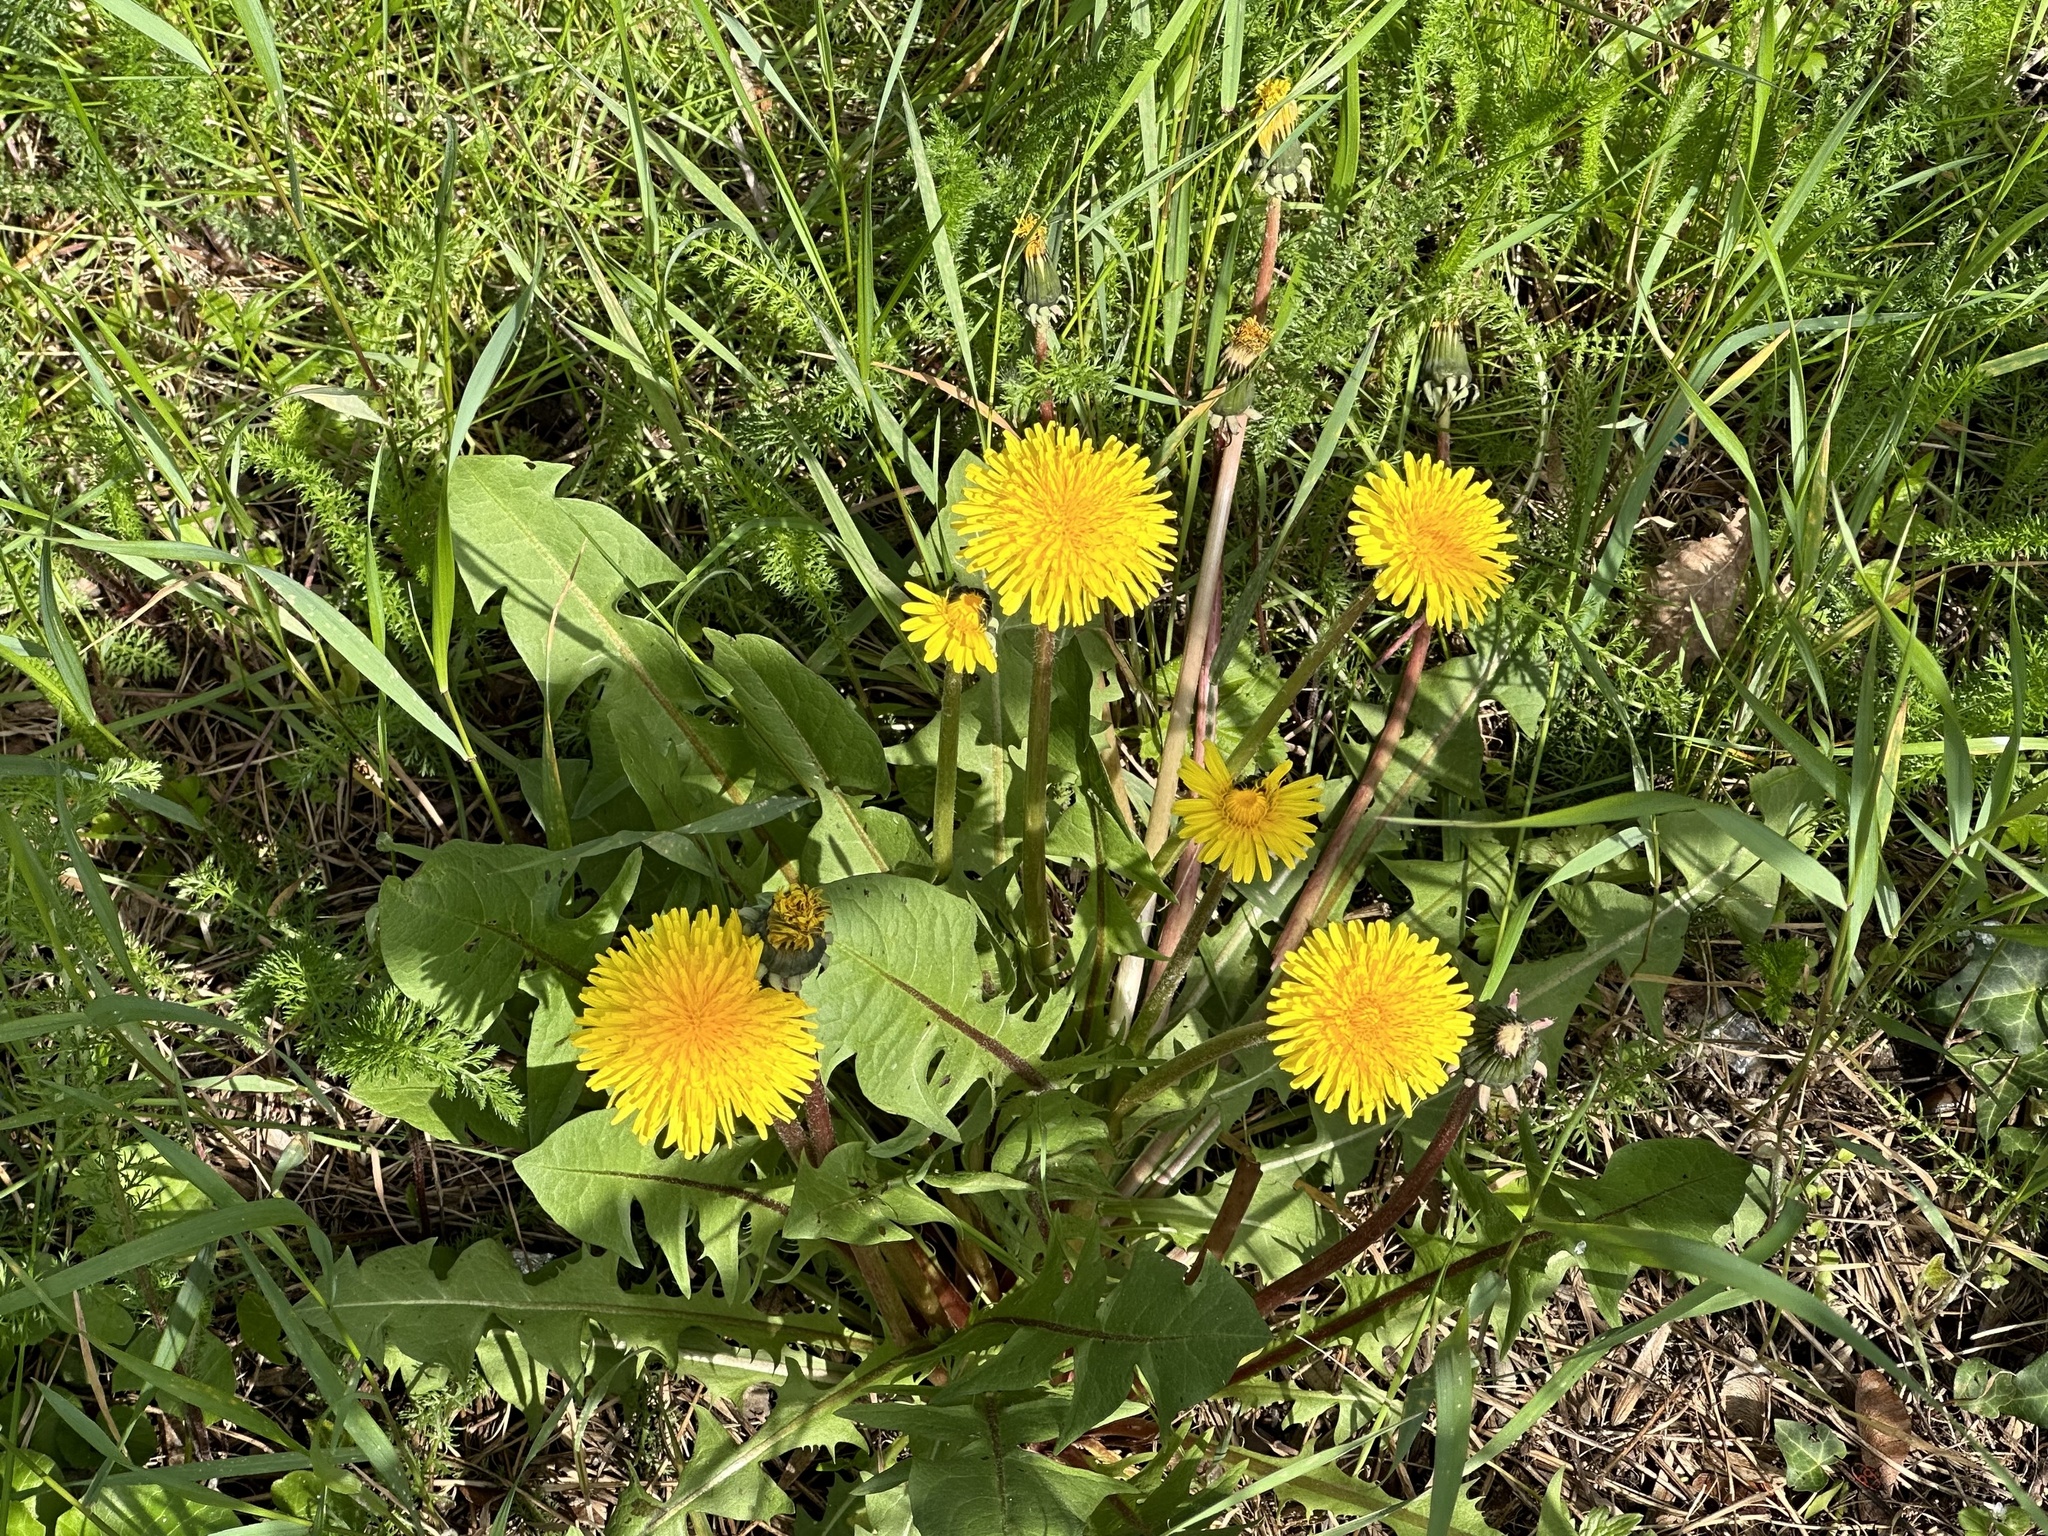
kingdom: Plantae
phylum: Tracheophyta
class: Magnoliopsida
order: Asterales
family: Asteraceae
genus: Taraxacum
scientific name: Taraxacum
